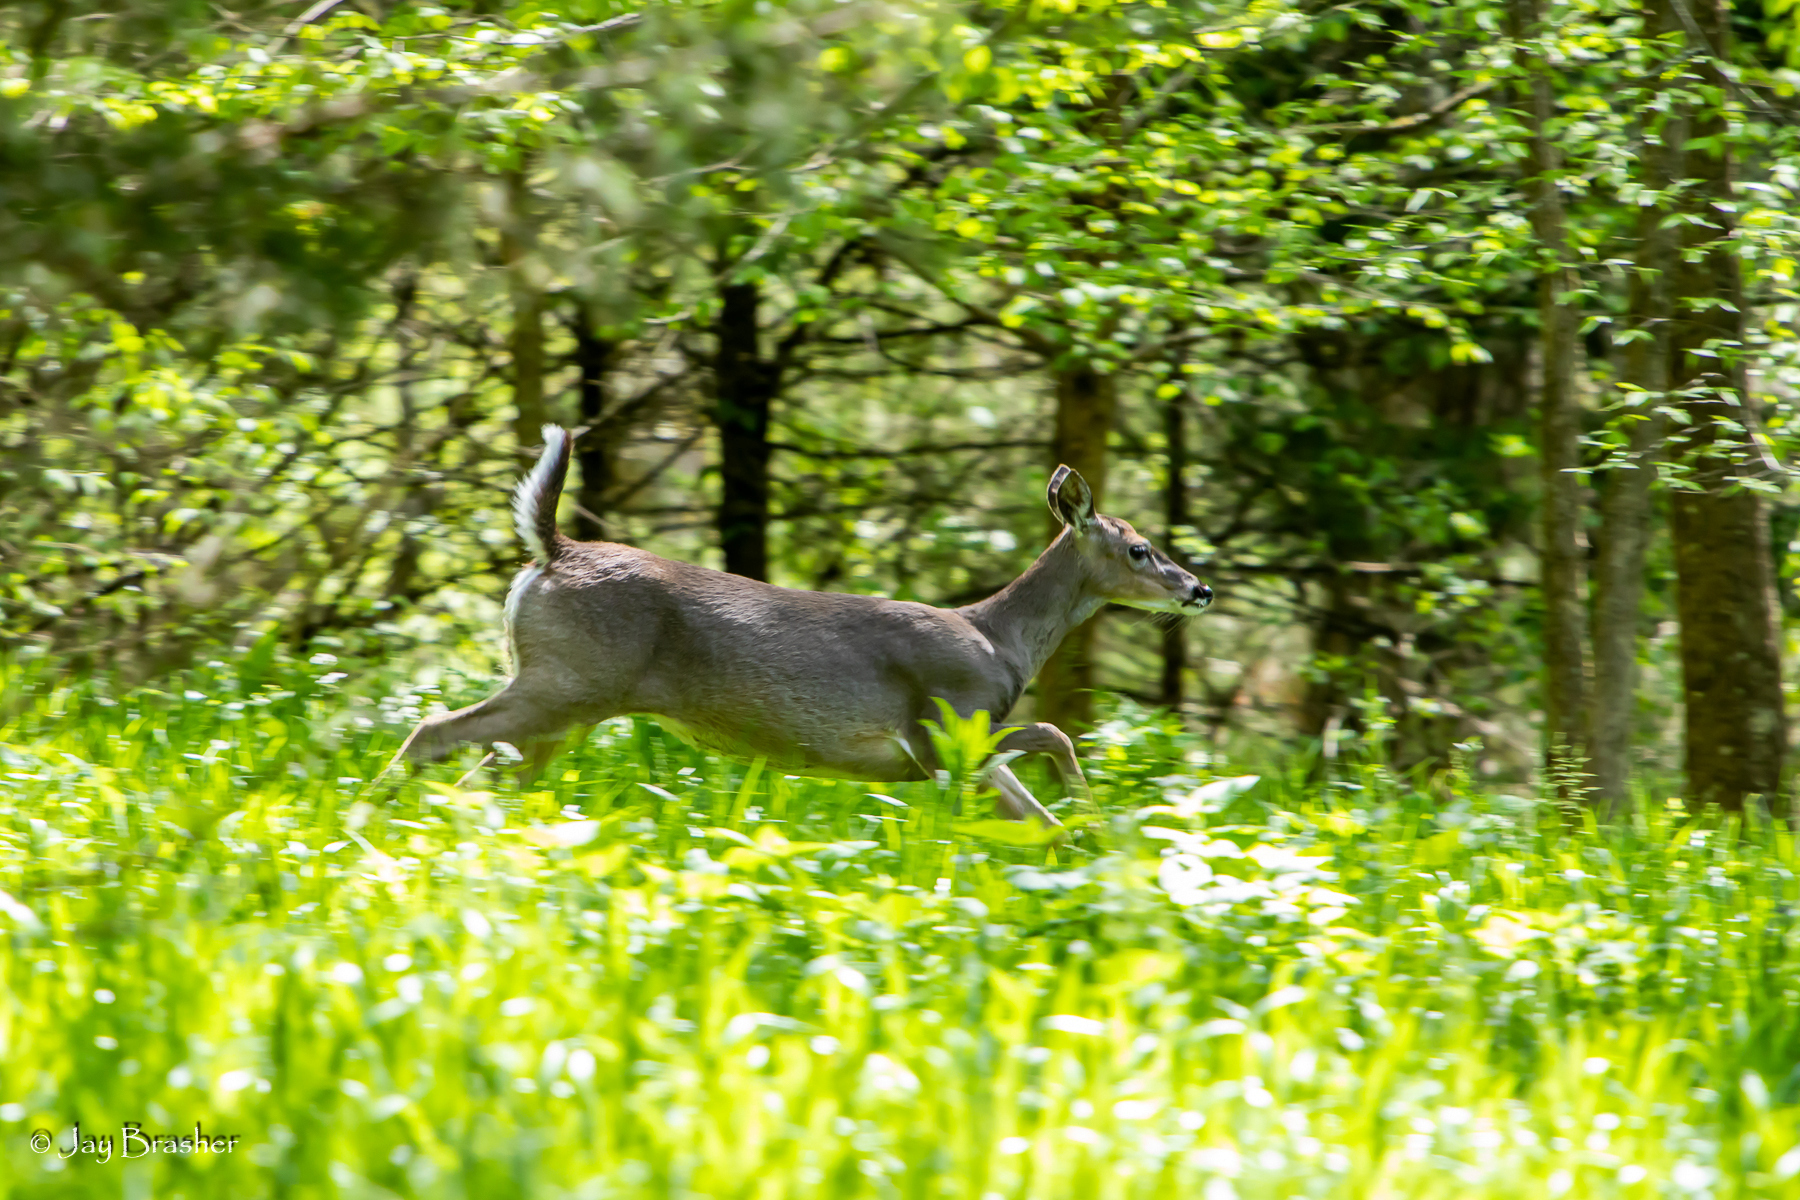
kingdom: Animalia
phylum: Chordata
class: Mammalia
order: Artiodactyla
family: Cervidae
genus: Odocoileus
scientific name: Odocoileus virginianus
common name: White-tailed deer
